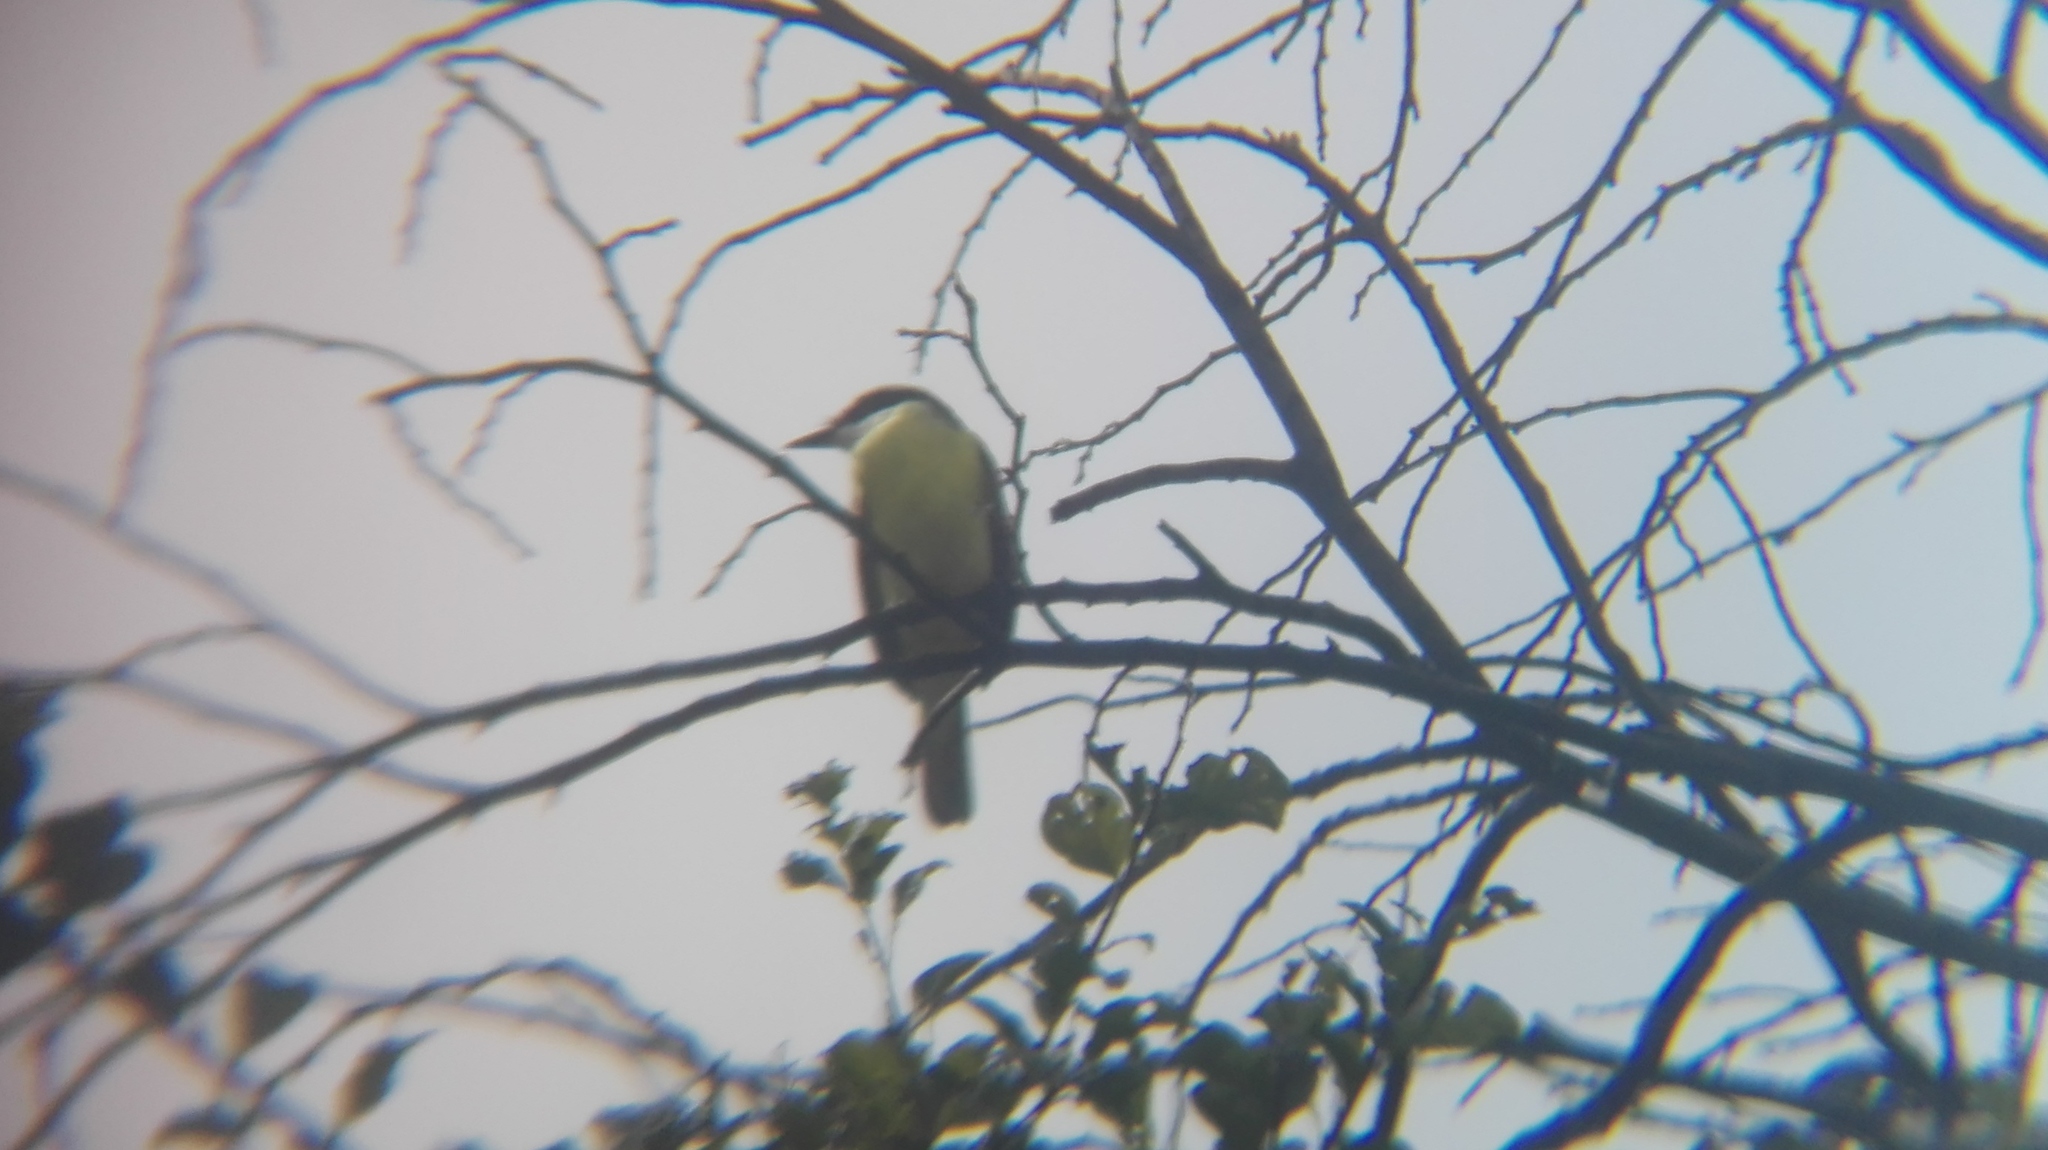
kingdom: Animalia
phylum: Chordata
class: Aves
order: Passeriformes
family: Tyrannidae
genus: Pitangus
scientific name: Pitangus sulphuratus
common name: Great kiskadee
